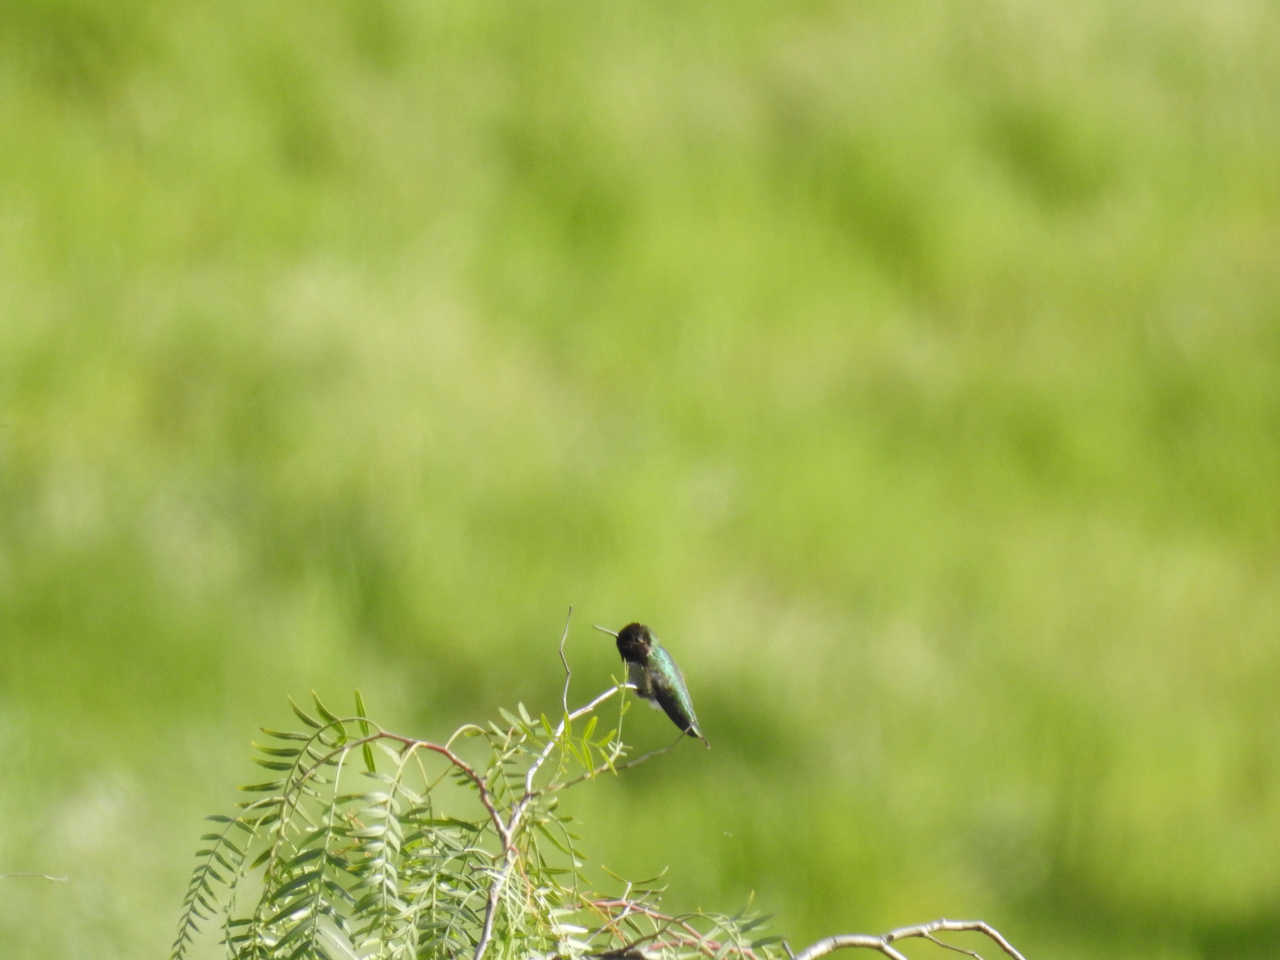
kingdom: Animalia
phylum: Chordata
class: Aves
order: Apodiformes
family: Trochilidae
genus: Calypte
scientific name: Calypte anna
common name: Anna's hummingbird
